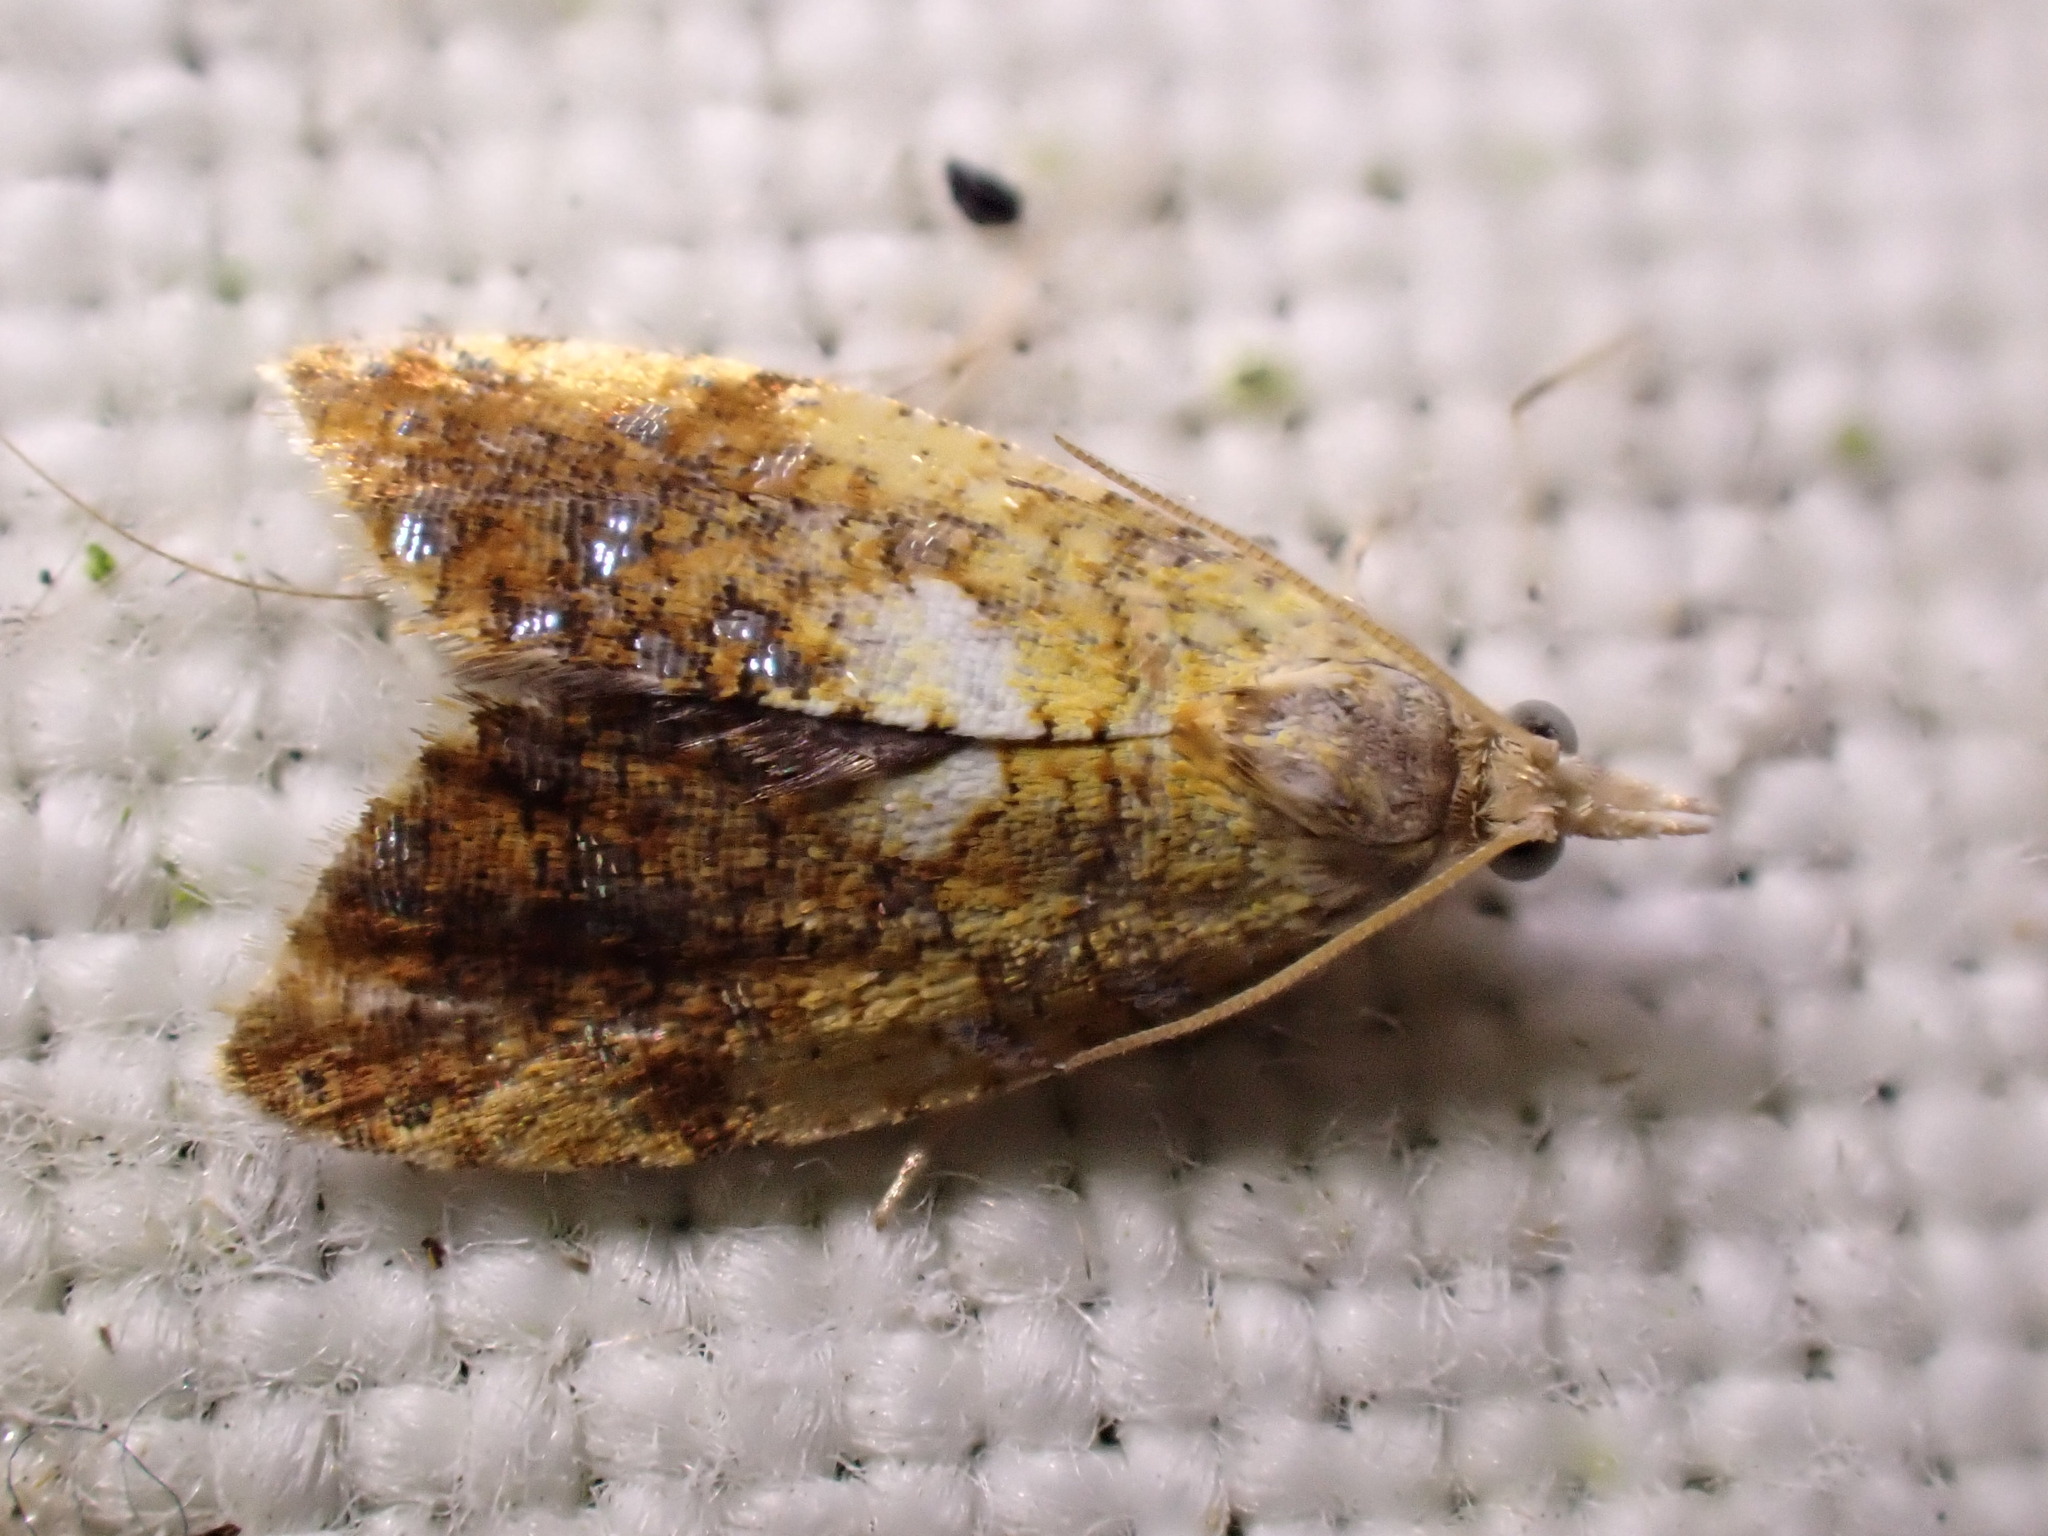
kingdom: Animalia
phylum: Arthropoda
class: Insecta
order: Lepidoptera
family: Tortricidae
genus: Pseudargyrotoza
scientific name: Pseudargyrotoza conwagana
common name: Yellow-spot twist
